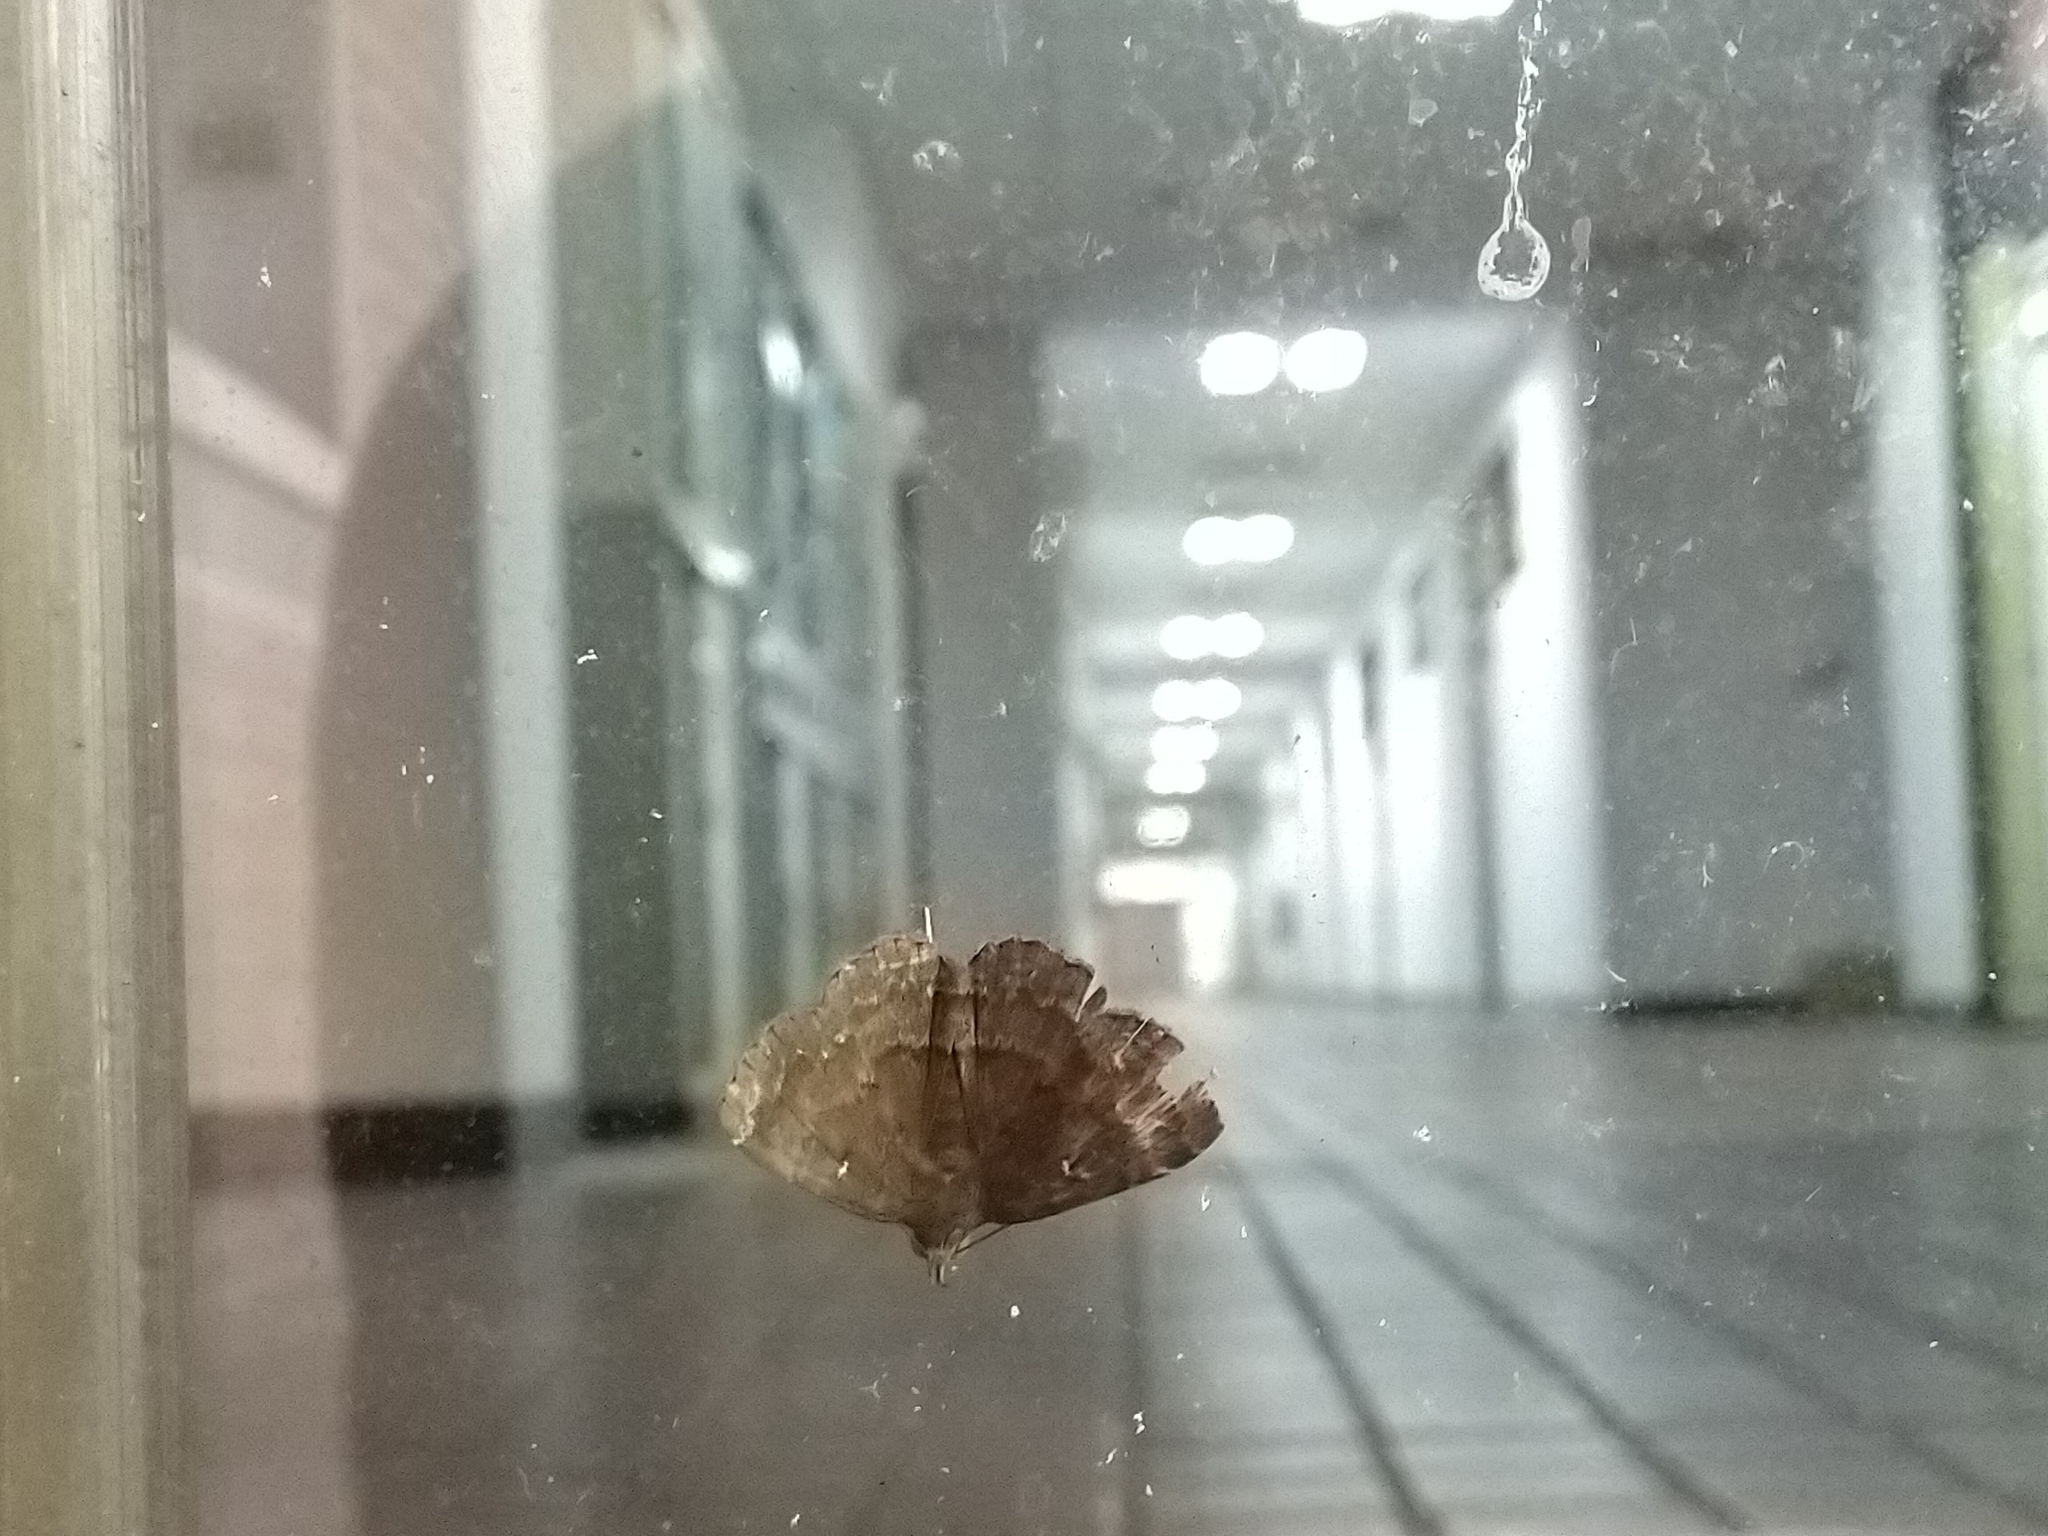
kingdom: Animalia
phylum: Arthropoda
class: Insecta
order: Lepidoptera
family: Erebidae
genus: Bocana
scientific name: Bocana manifestalis
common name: Moth
